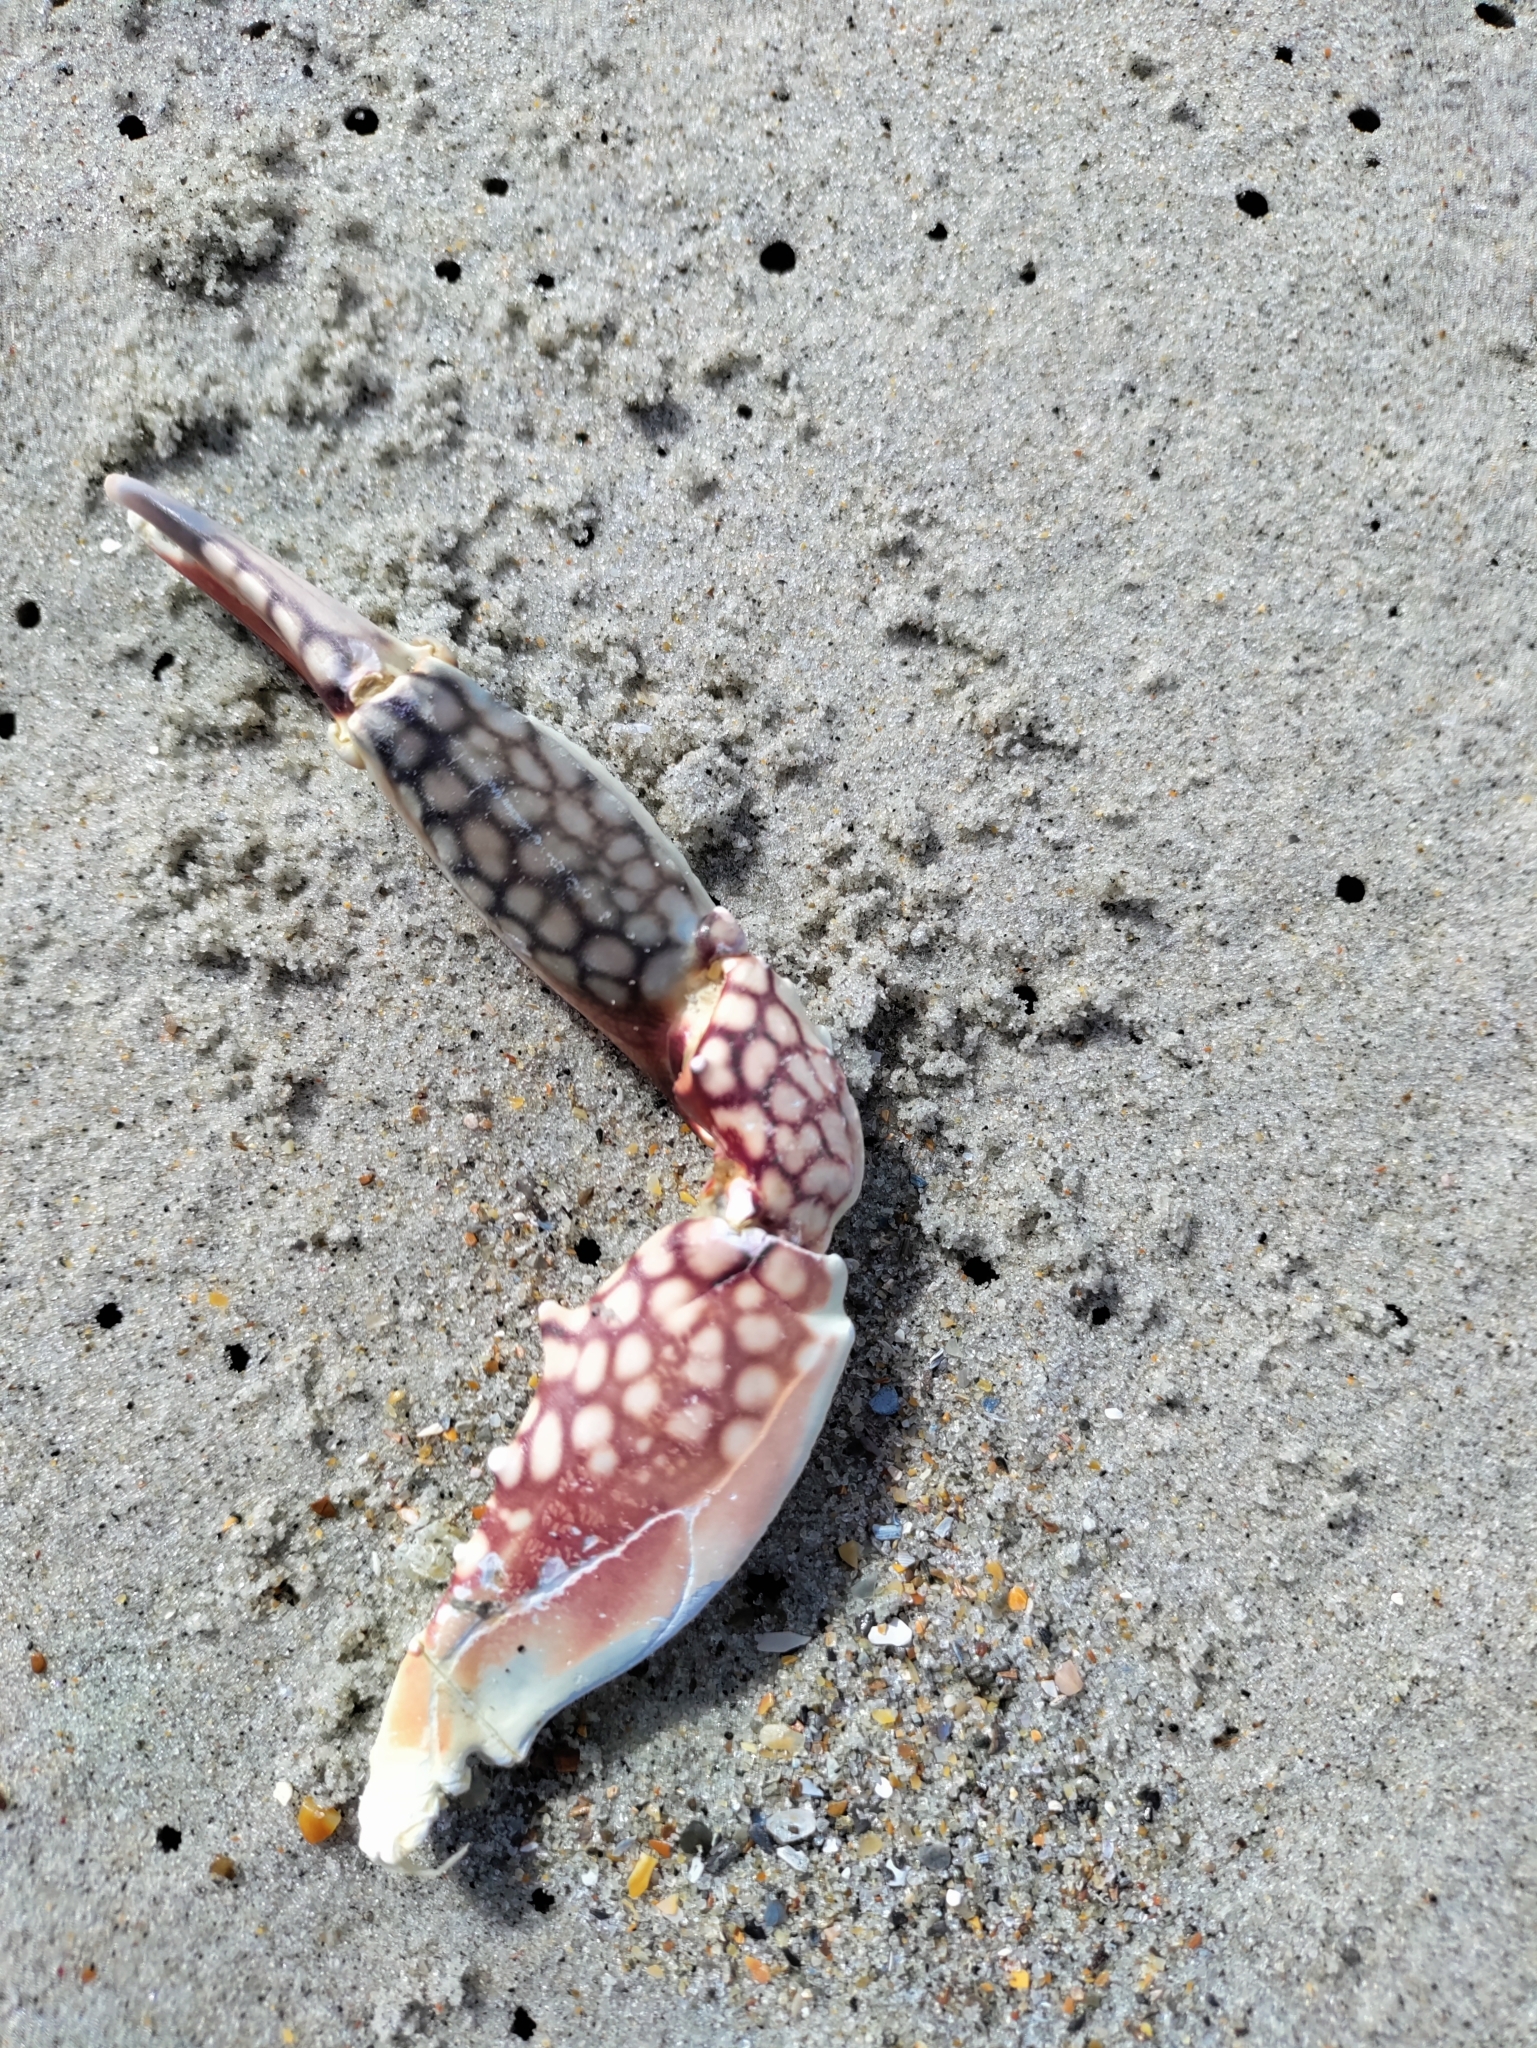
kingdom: Animalia
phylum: Arthropoda
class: Malacostraca
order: Decapoda
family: Portunidae
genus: Arenaeus
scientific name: Arenaeus cribrarius
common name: Speckled crab
